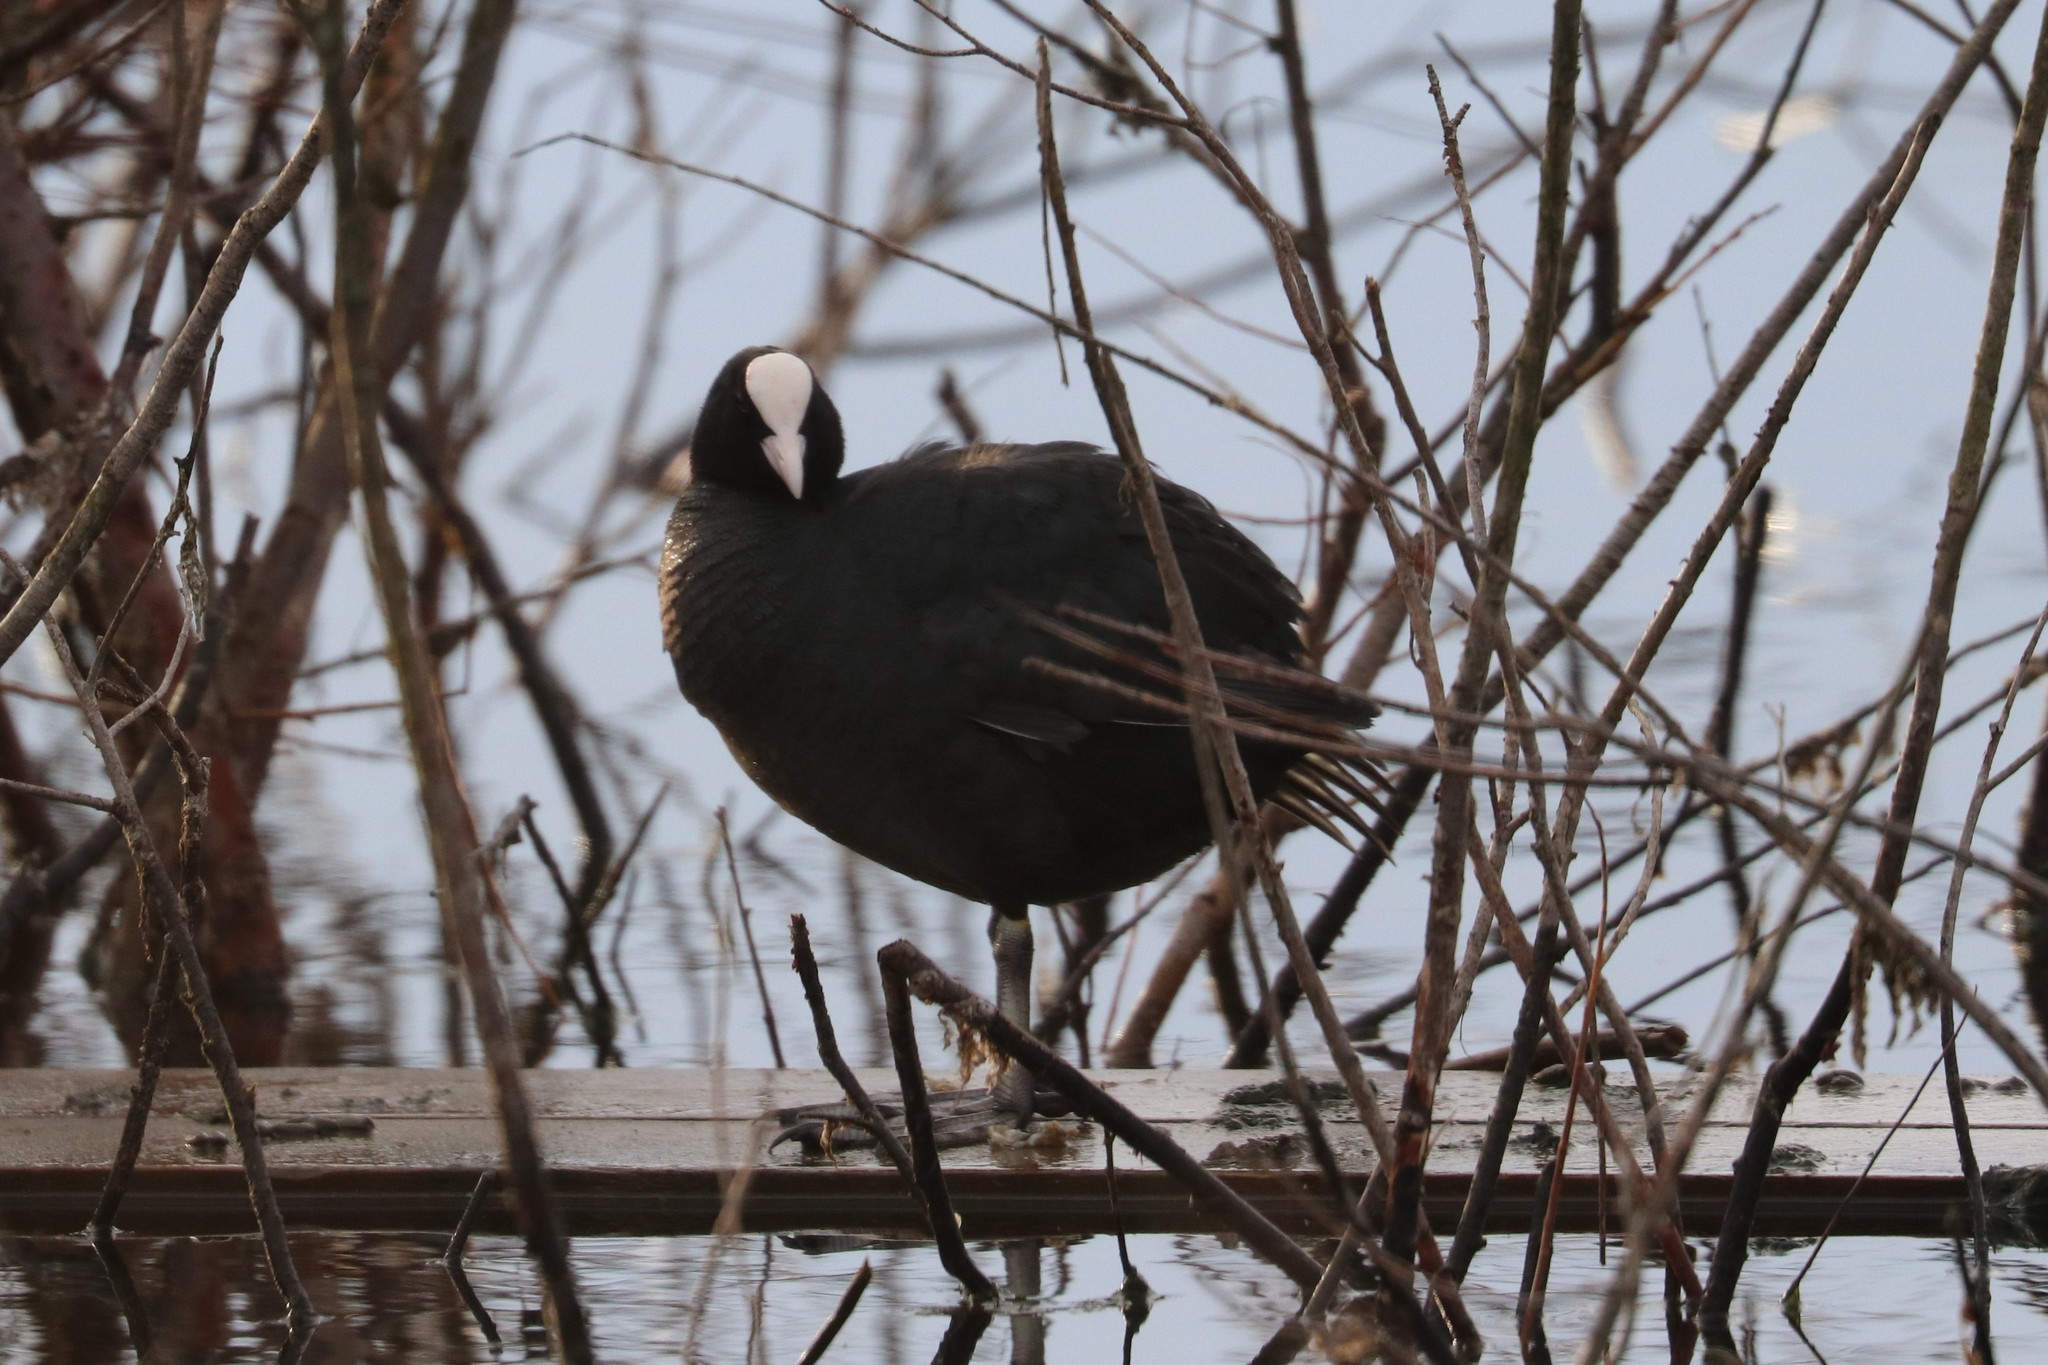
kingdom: Animalia
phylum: Chordata
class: Aves
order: Gruiformes
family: Rallidae
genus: Fulica
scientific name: Fulica atra
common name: Eurasian coot
